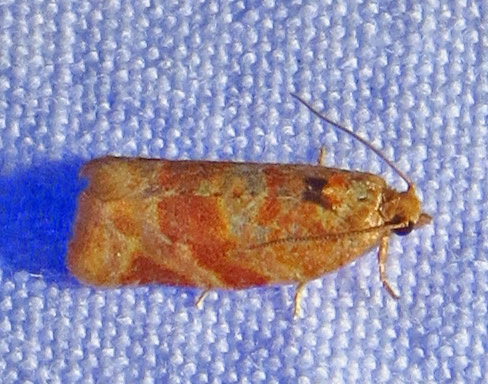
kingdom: Animalia
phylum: Arthropoda
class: Insecta
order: Lepidoptera
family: Tortricidae
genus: Argyrotaenia
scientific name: Argyrotaenia pinatubana
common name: Pine tube moth
